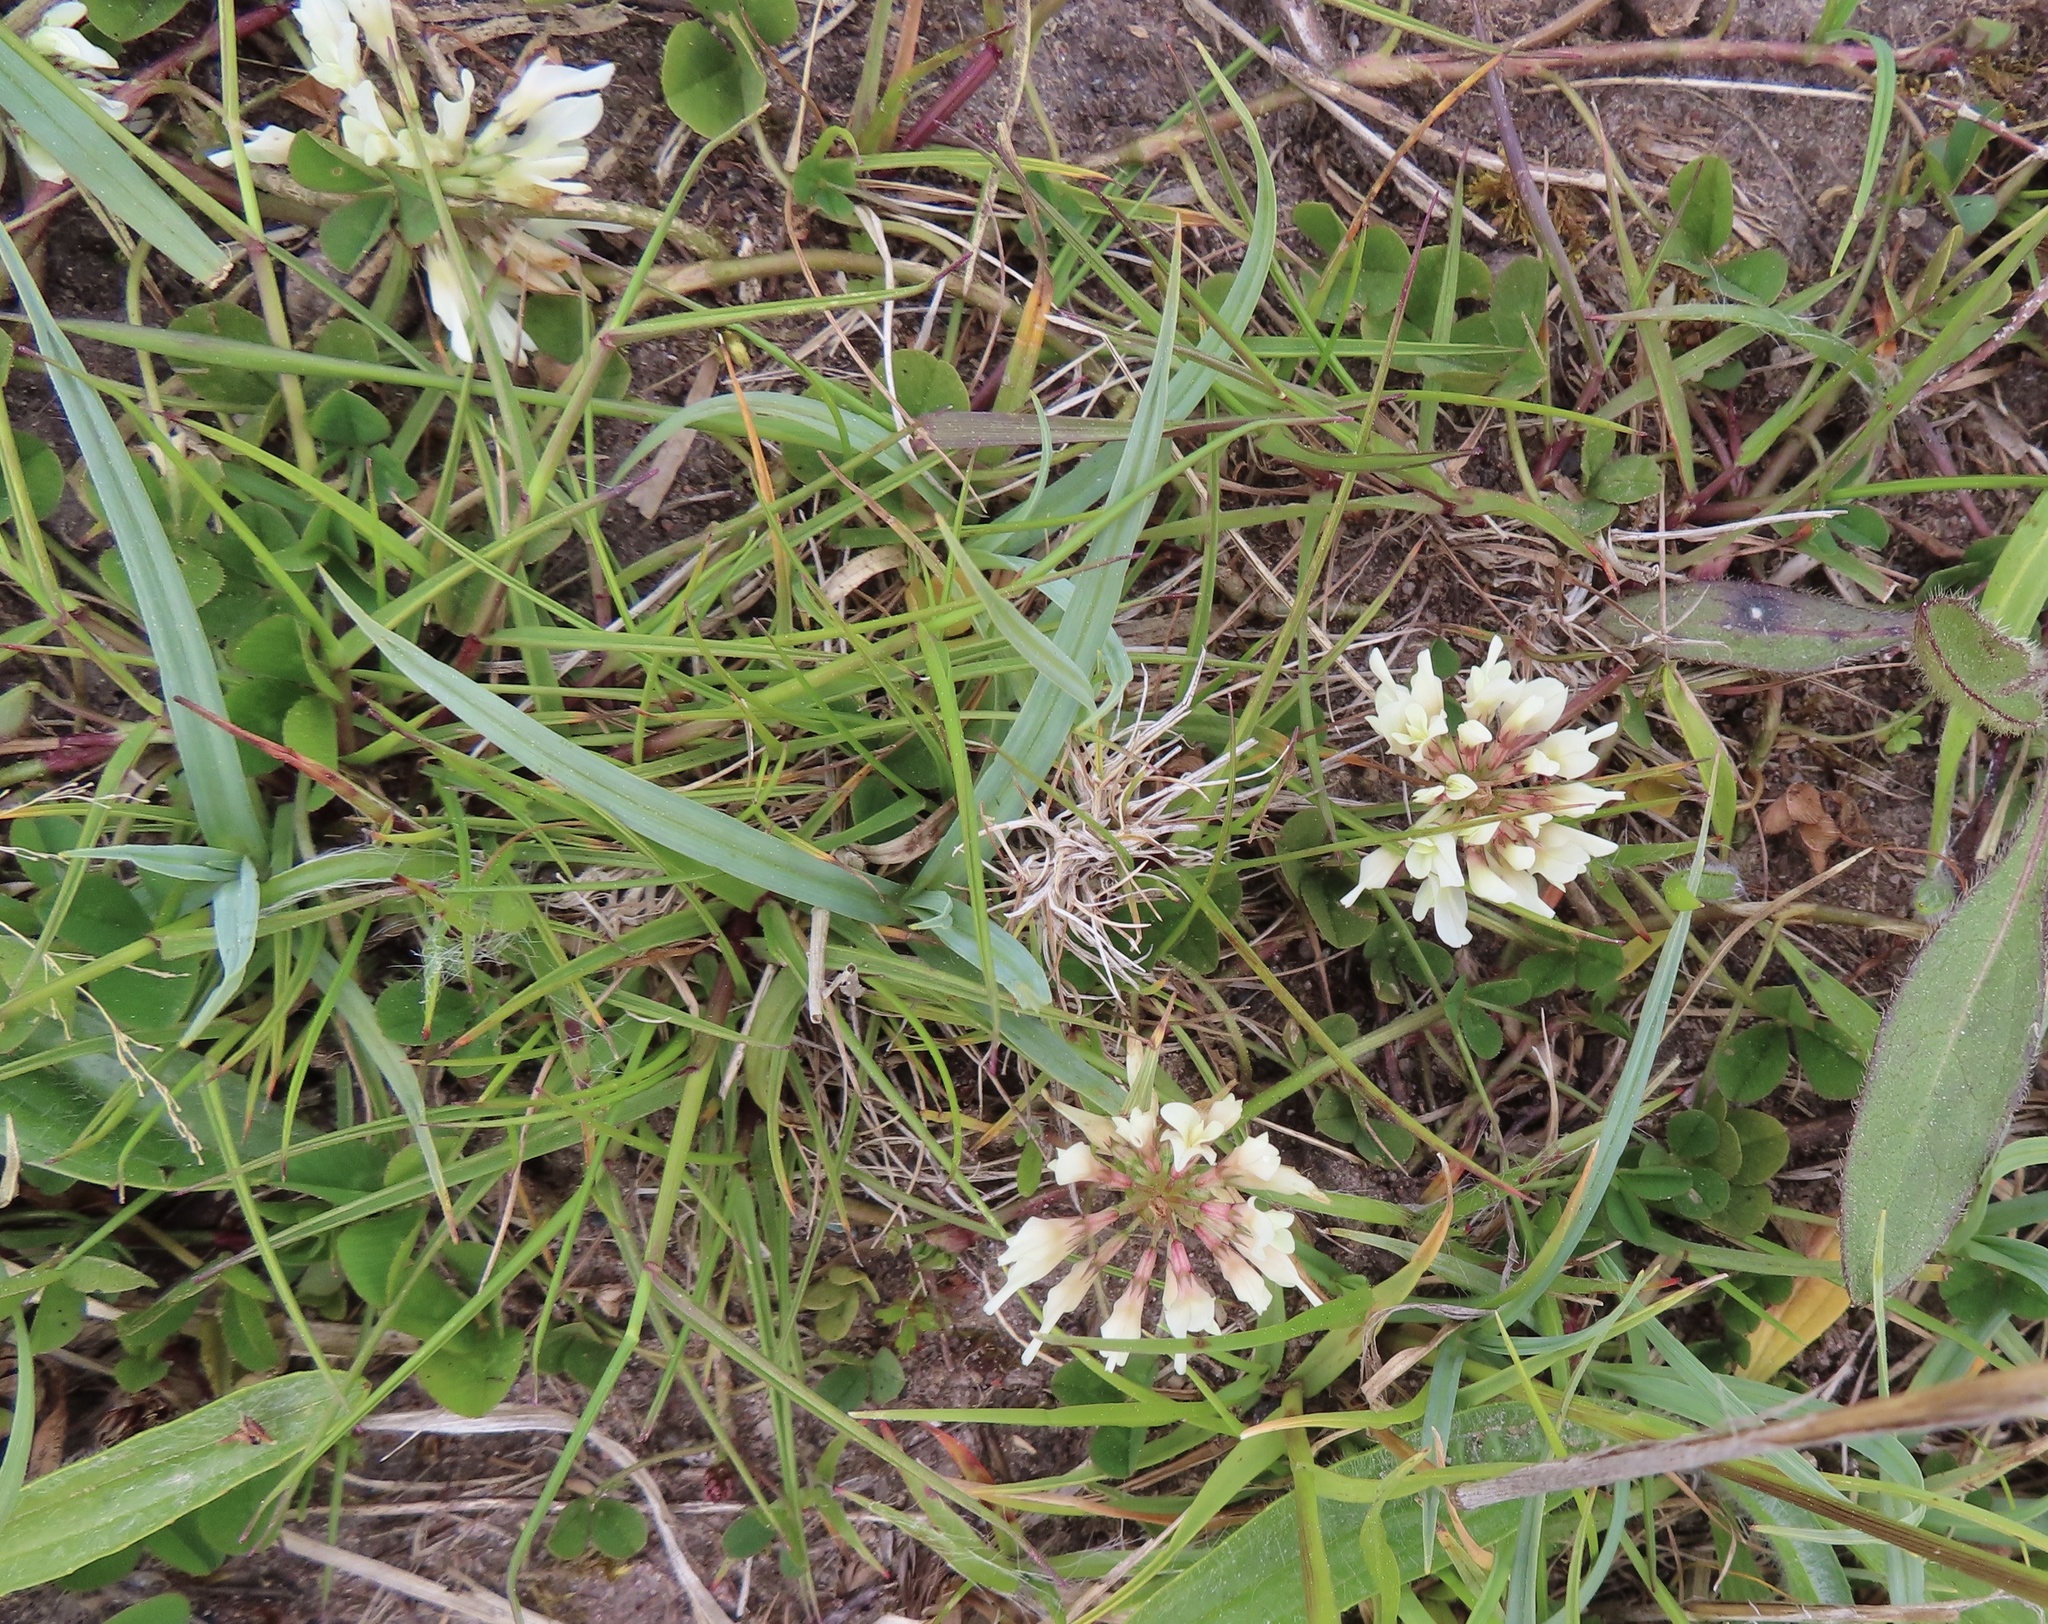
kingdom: Plantae
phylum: Tracheophyta
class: Magnoliopsida
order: Fabales
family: Fabaceae
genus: Trifolium
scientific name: Trifolium repens
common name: White clover
